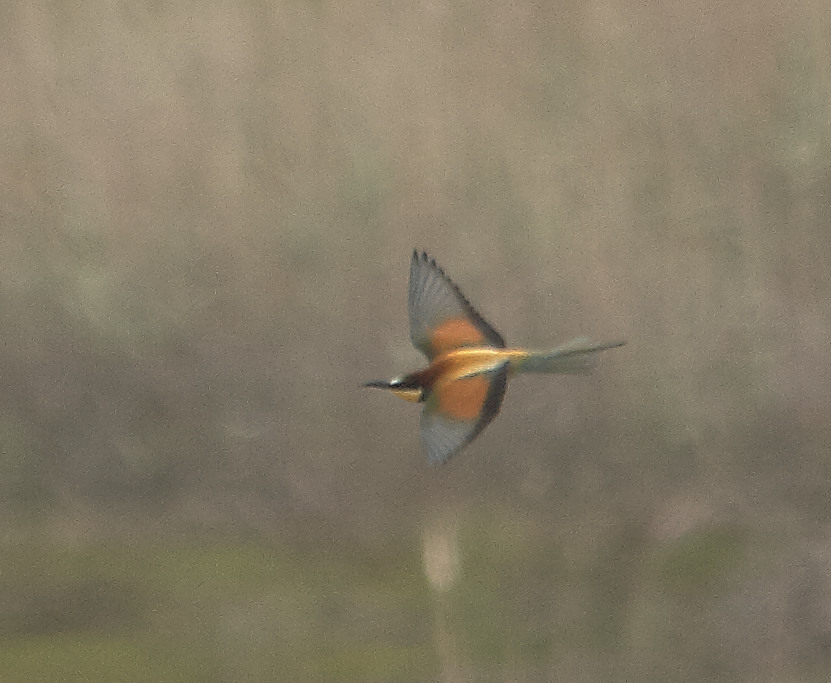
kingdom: Animalia
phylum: Chordata
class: Aves
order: Coraciiformes
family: Meropidae
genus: Merops
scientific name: Merops apiaster
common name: European bee-eater
